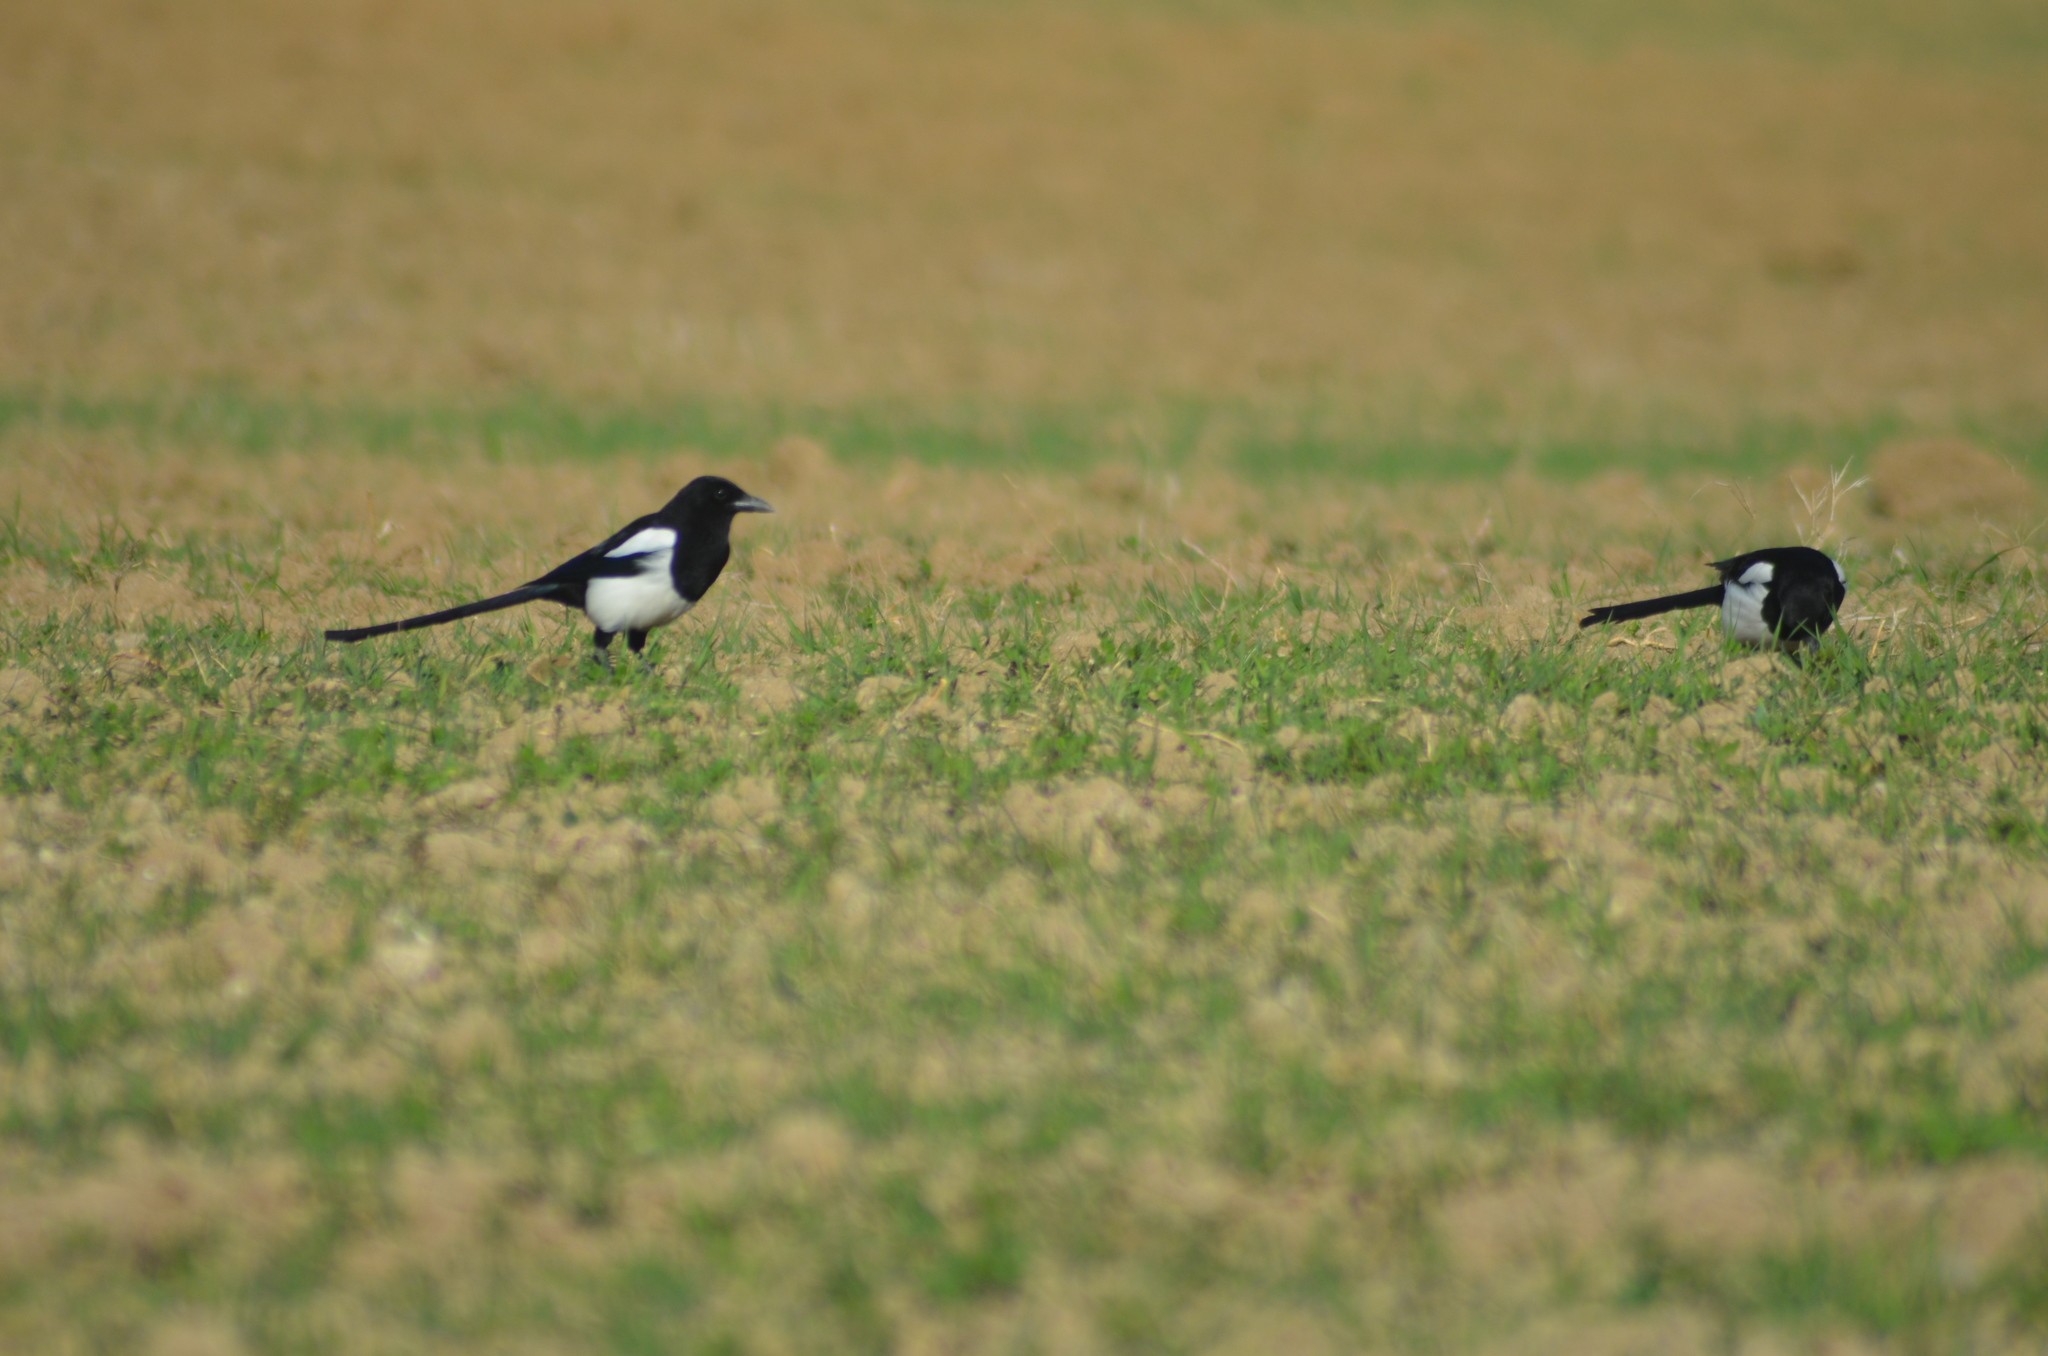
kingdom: Animalia
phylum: Chordata
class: Aves
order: Passeriformes
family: Corvidae
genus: Pica
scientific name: Pica pica
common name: Eurasian magpie
